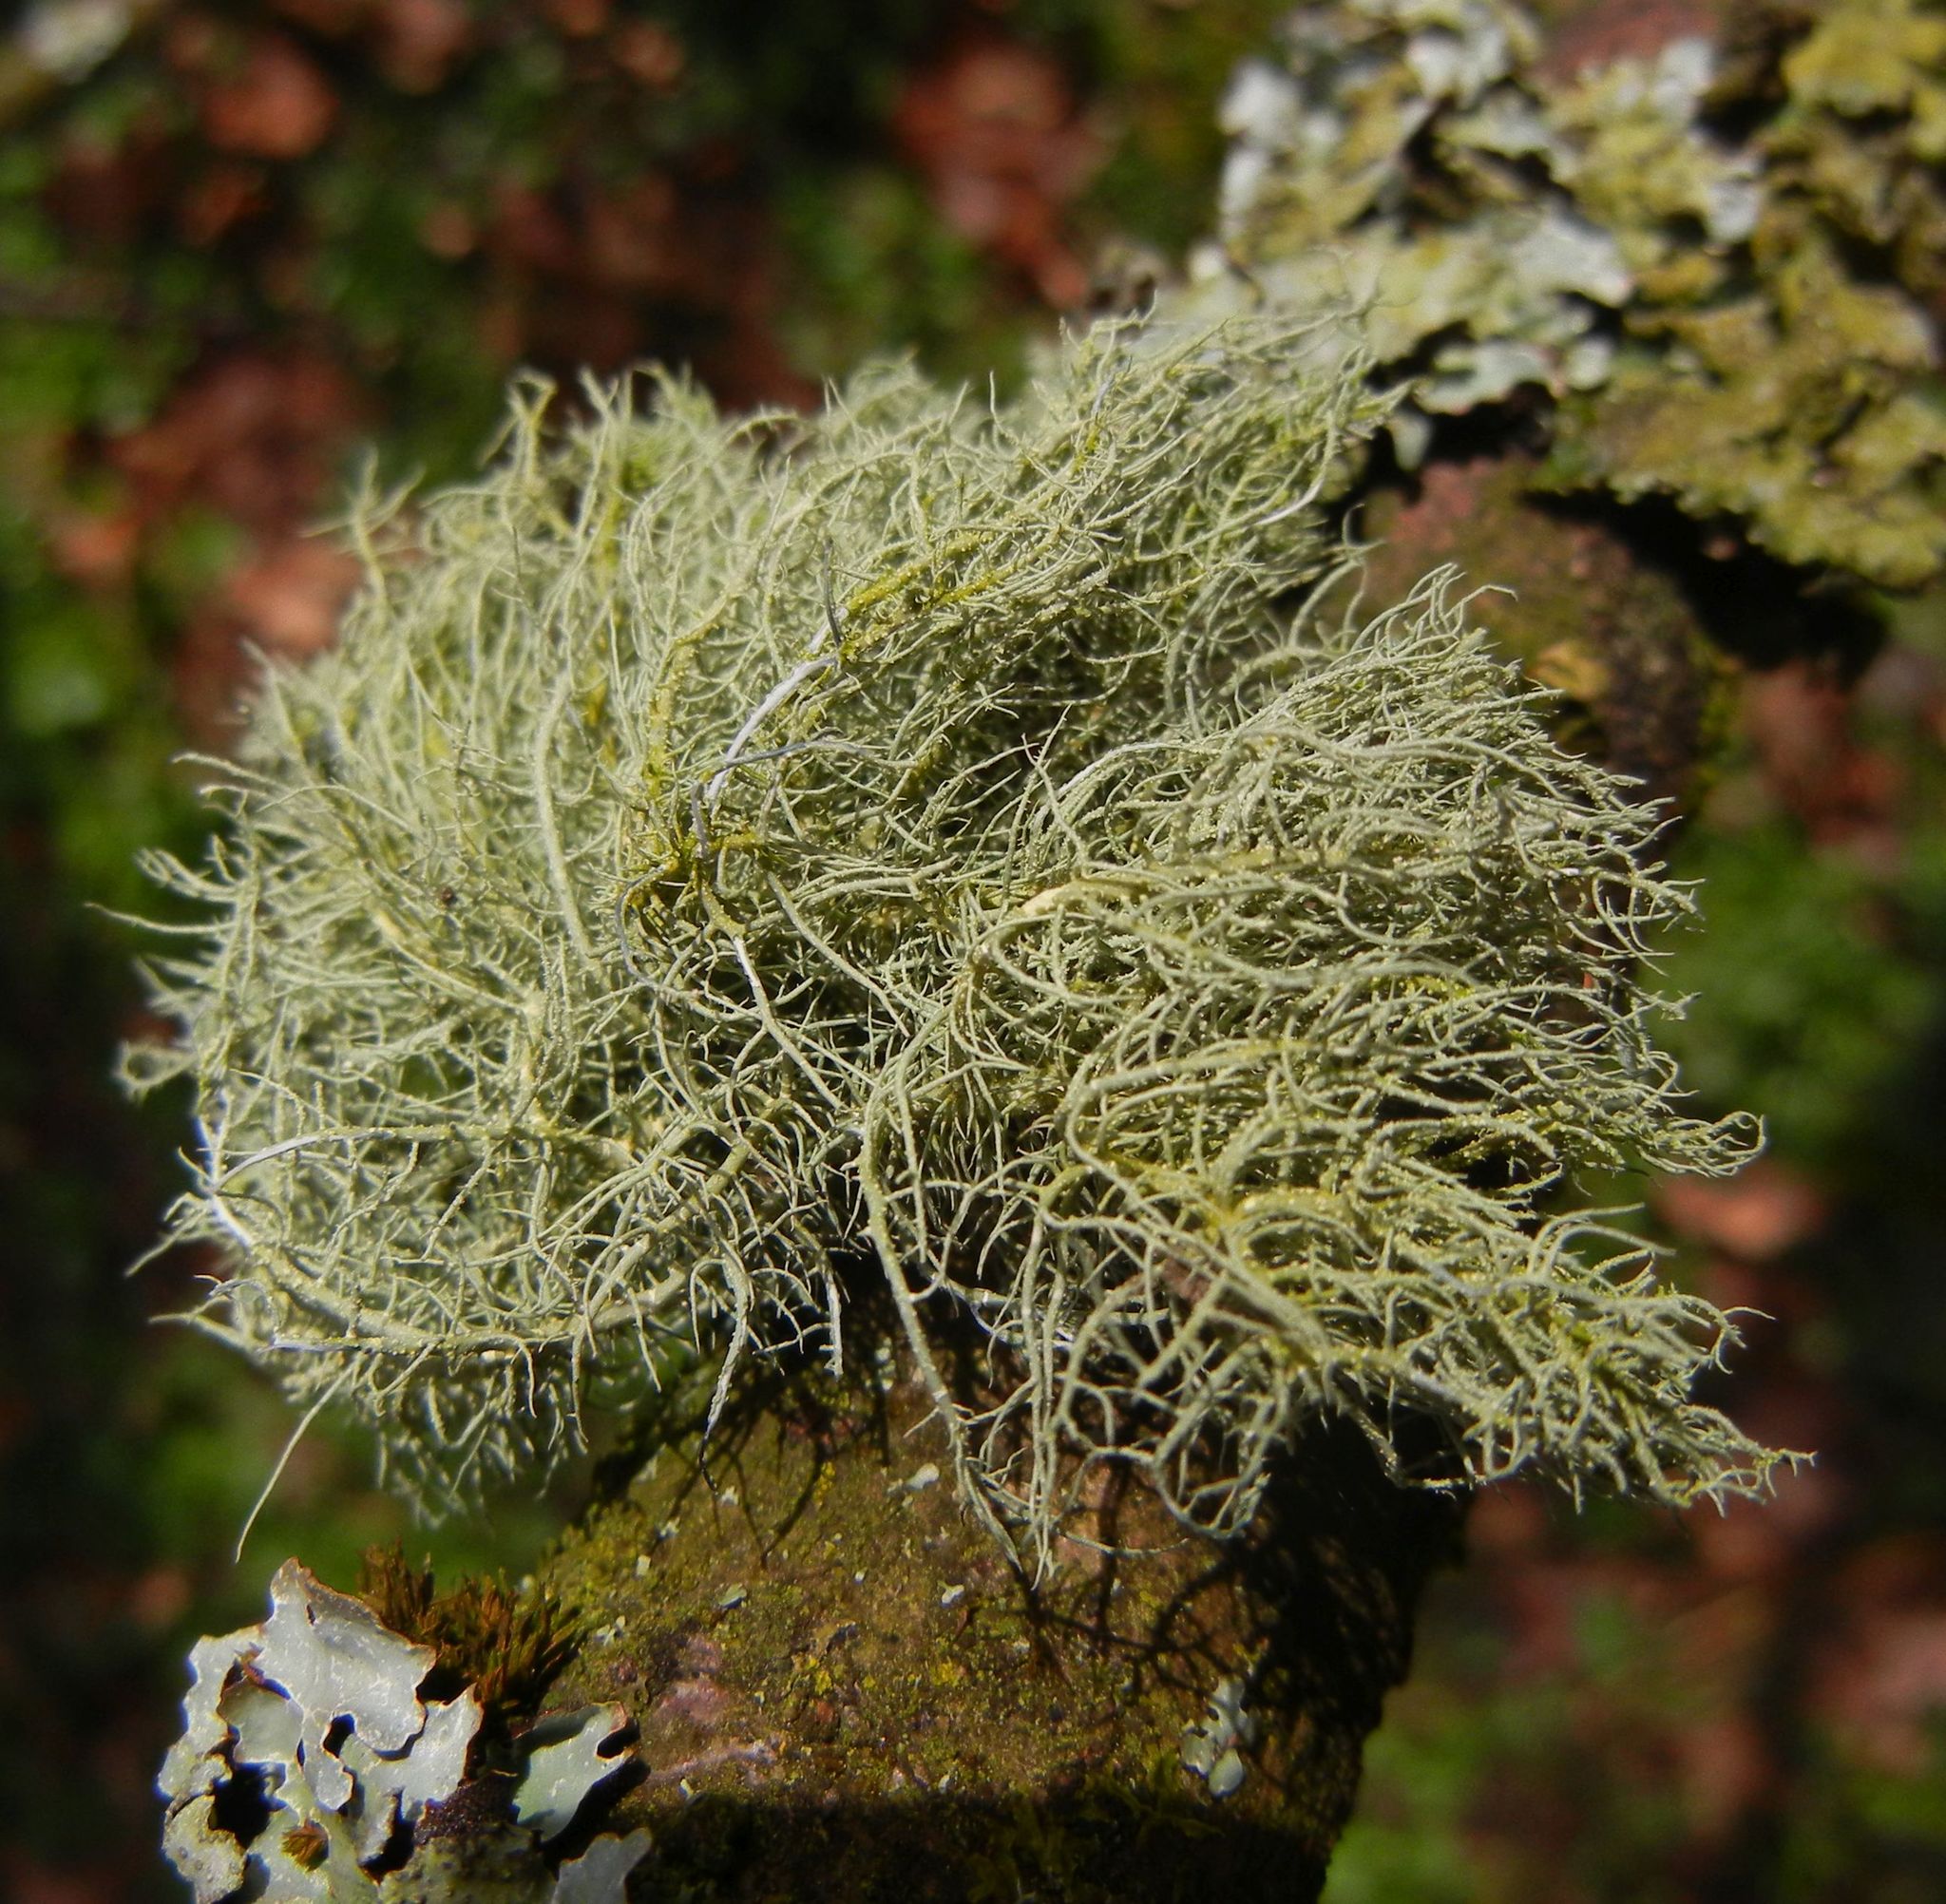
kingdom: Fungi
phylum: Ascomycota
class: Lecanoromycetes
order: Lecanorales
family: Parmeliaceae
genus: Usnea
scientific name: Usnea
